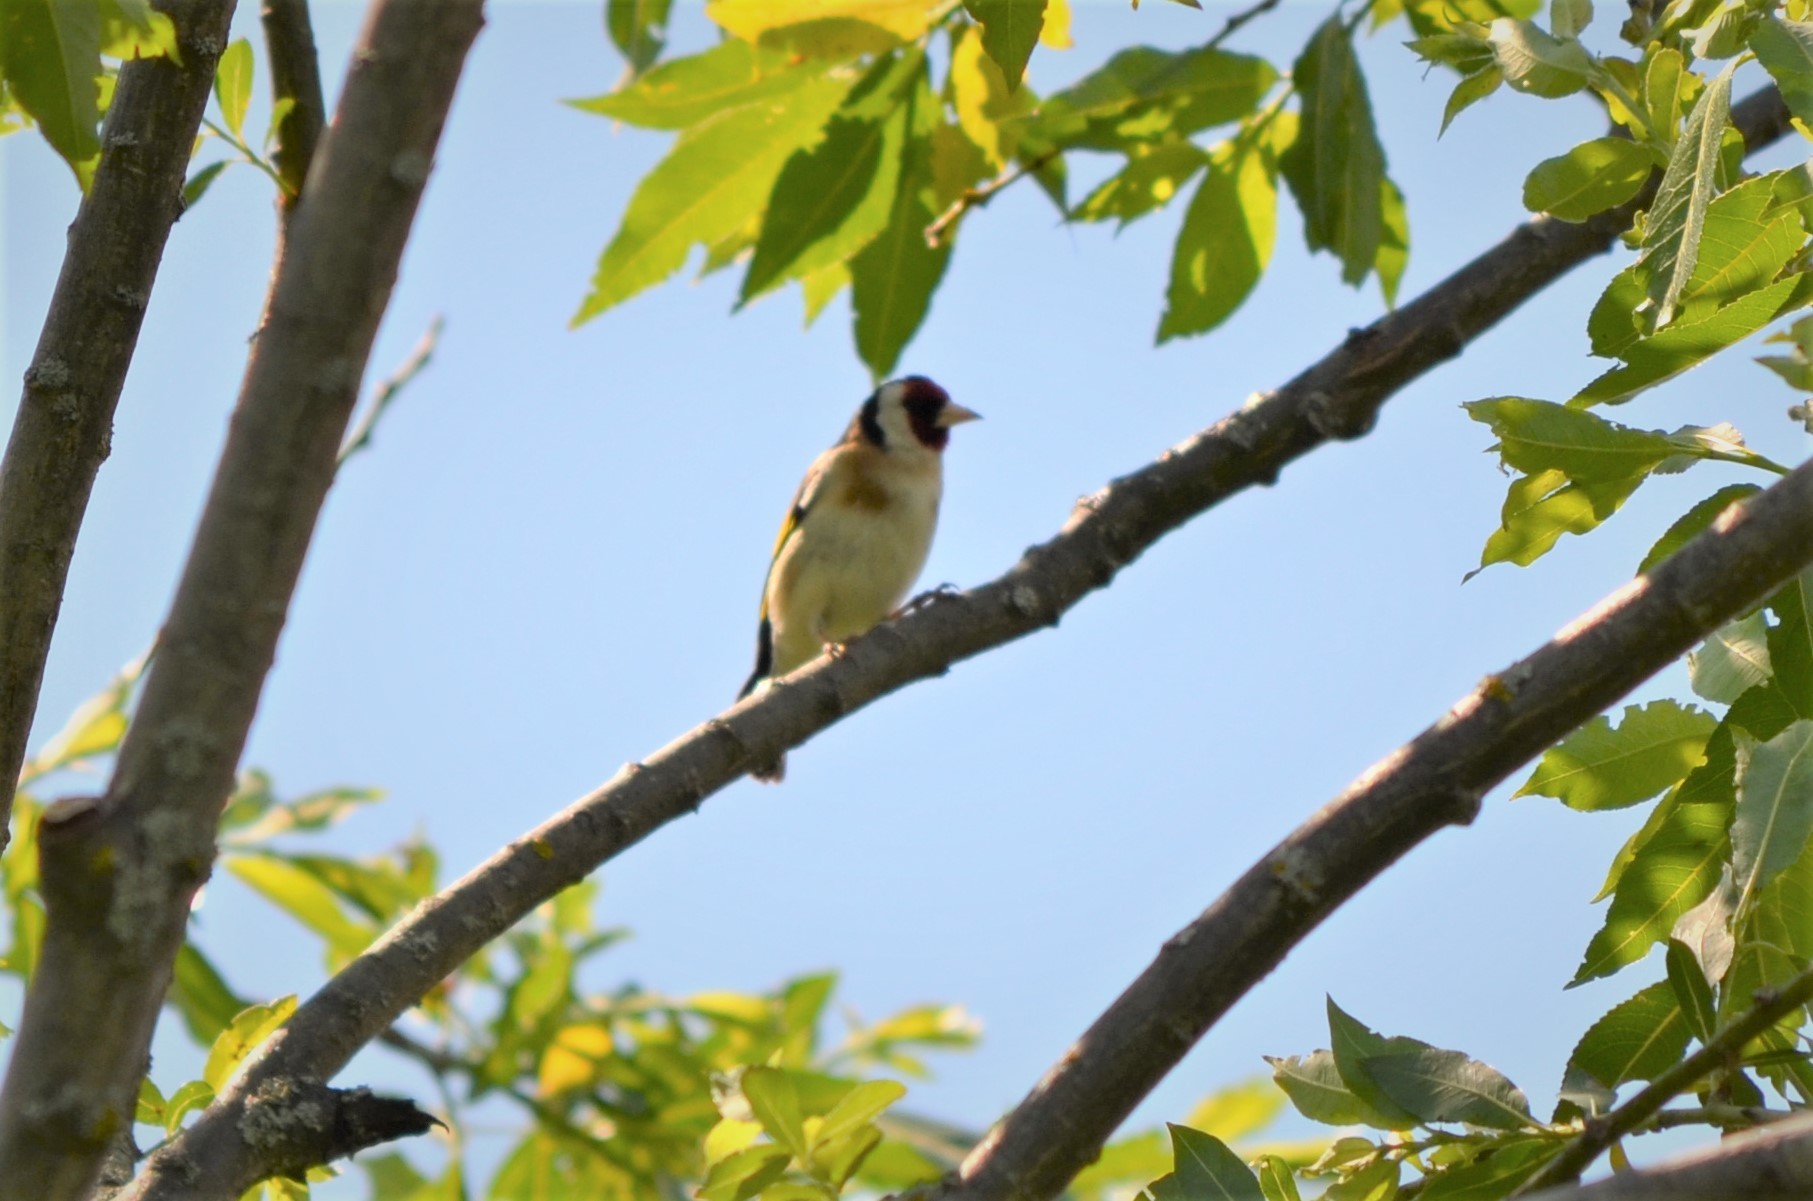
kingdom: Animalia
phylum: Chordata
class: Aves
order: Passeriformes
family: Fringillidae
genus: Carduelis
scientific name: Carduelis carduelis
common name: European goldfinch
